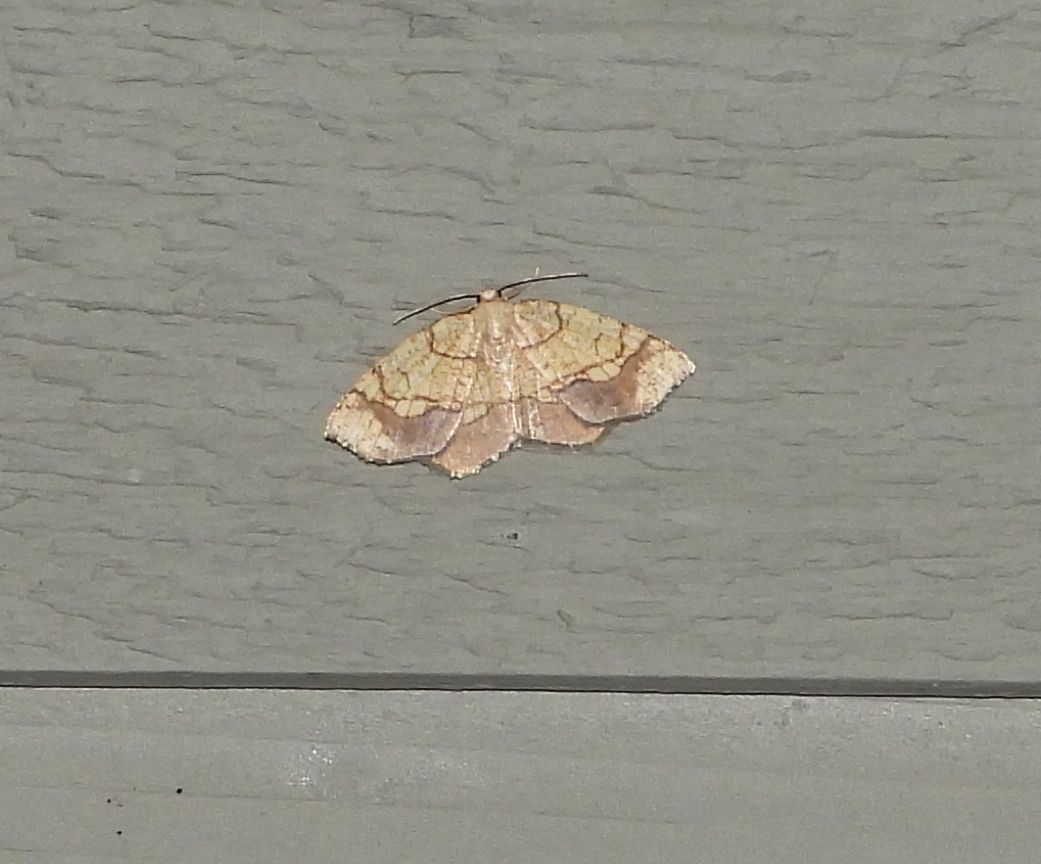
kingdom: Animalia
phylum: Arthropoda
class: Insecta
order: Lepidoptera
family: Geometridae
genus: Nematocampa
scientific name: Nematocampa resistaria
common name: Horned spanworm moth
